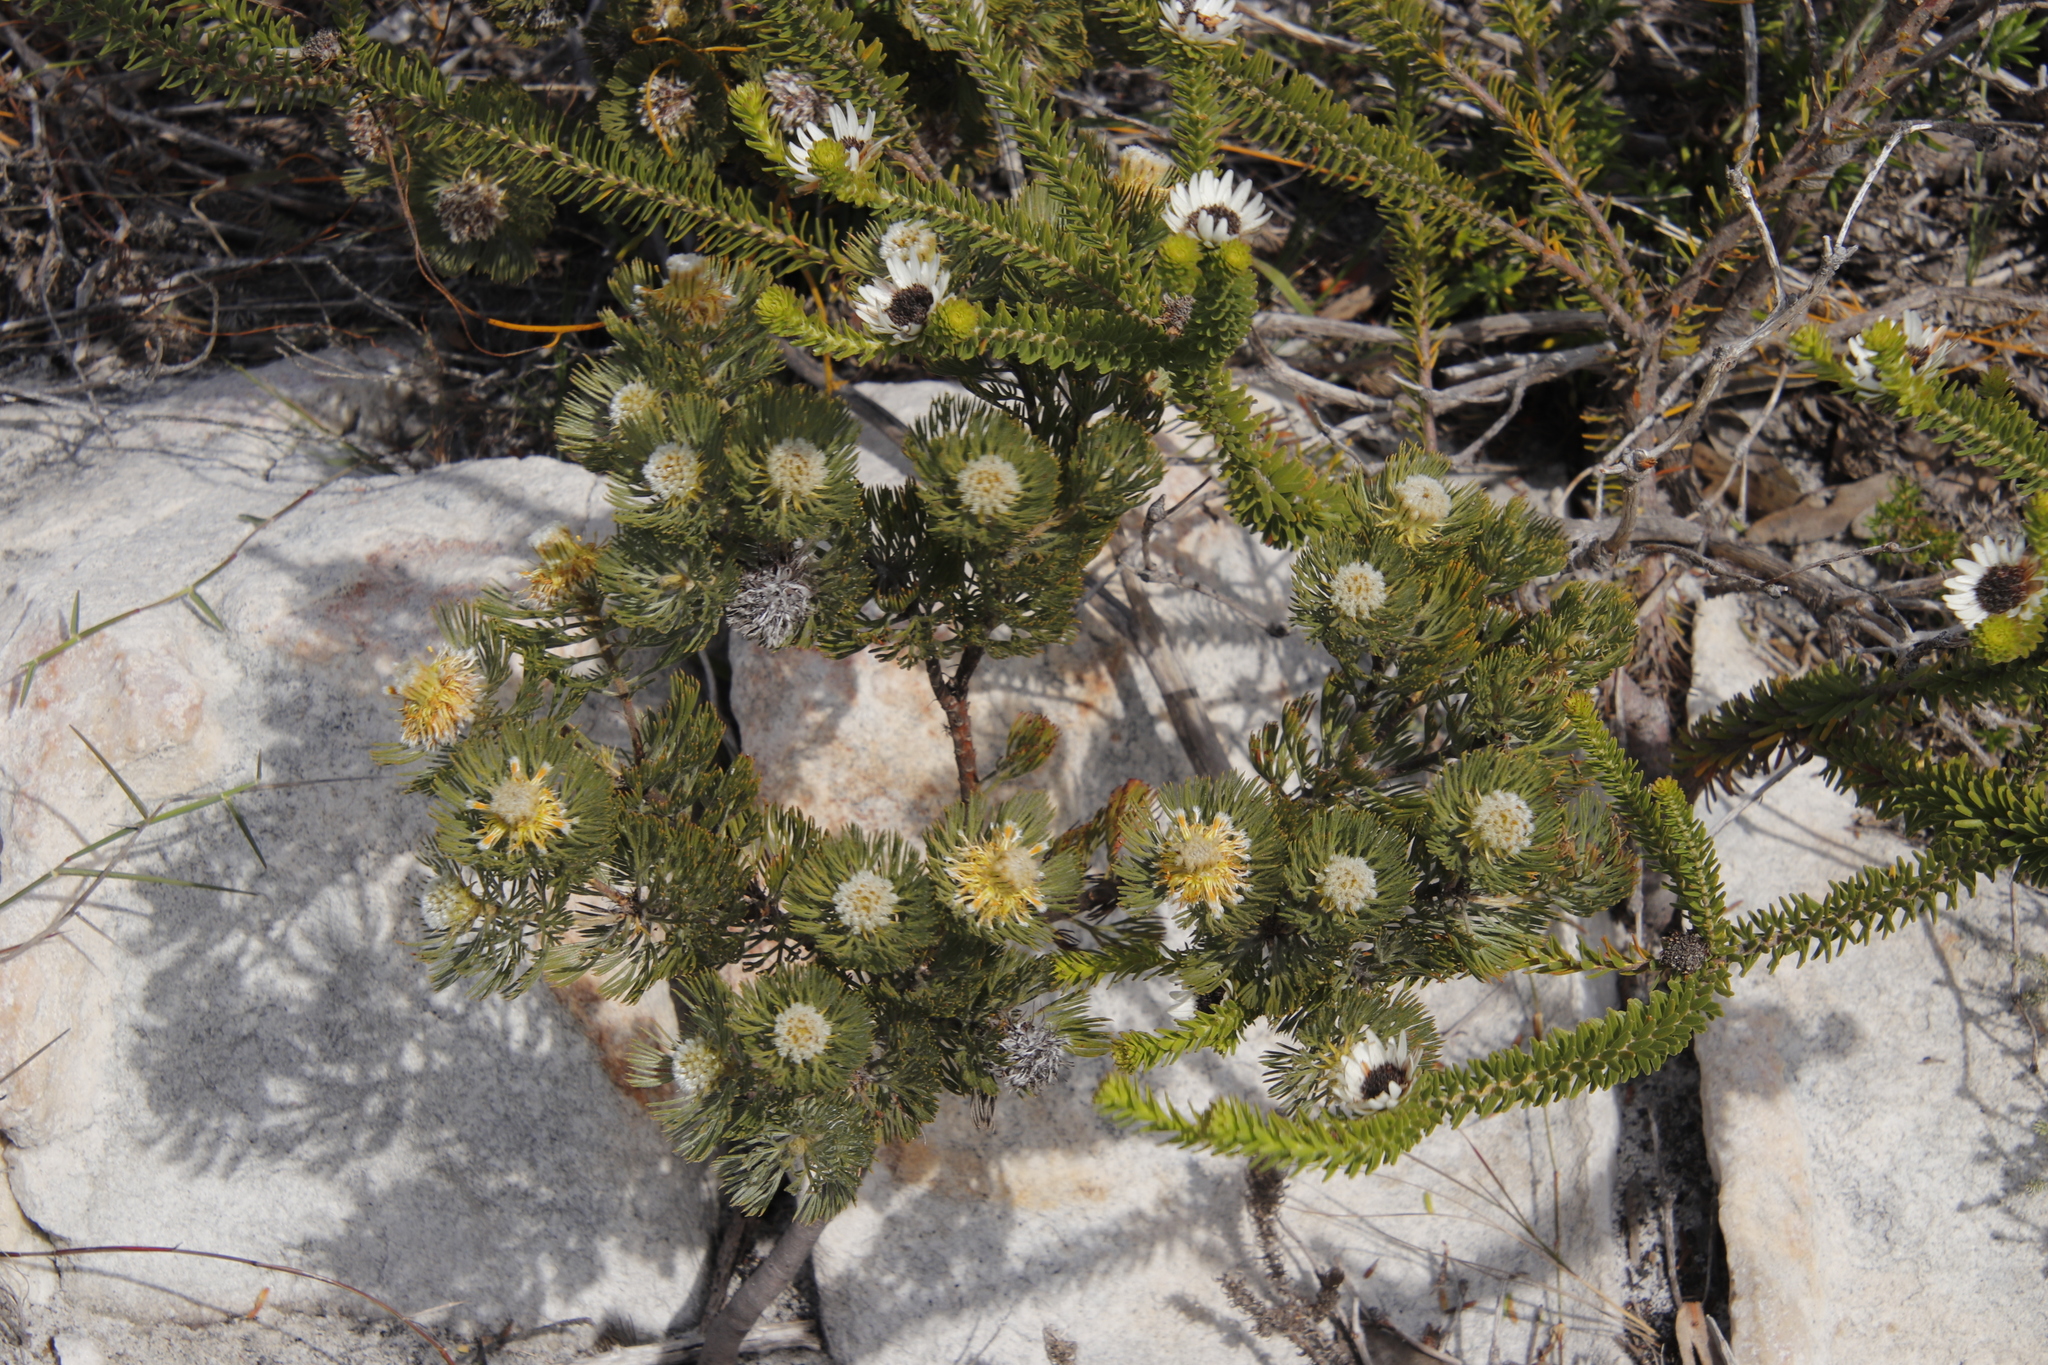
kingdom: Plantae
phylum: Tracheophyta
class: Magnoliopsida
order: Proteales
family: Proteaceae
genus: Serruria
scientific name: Serruria villosa
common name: Golden spiderhead
